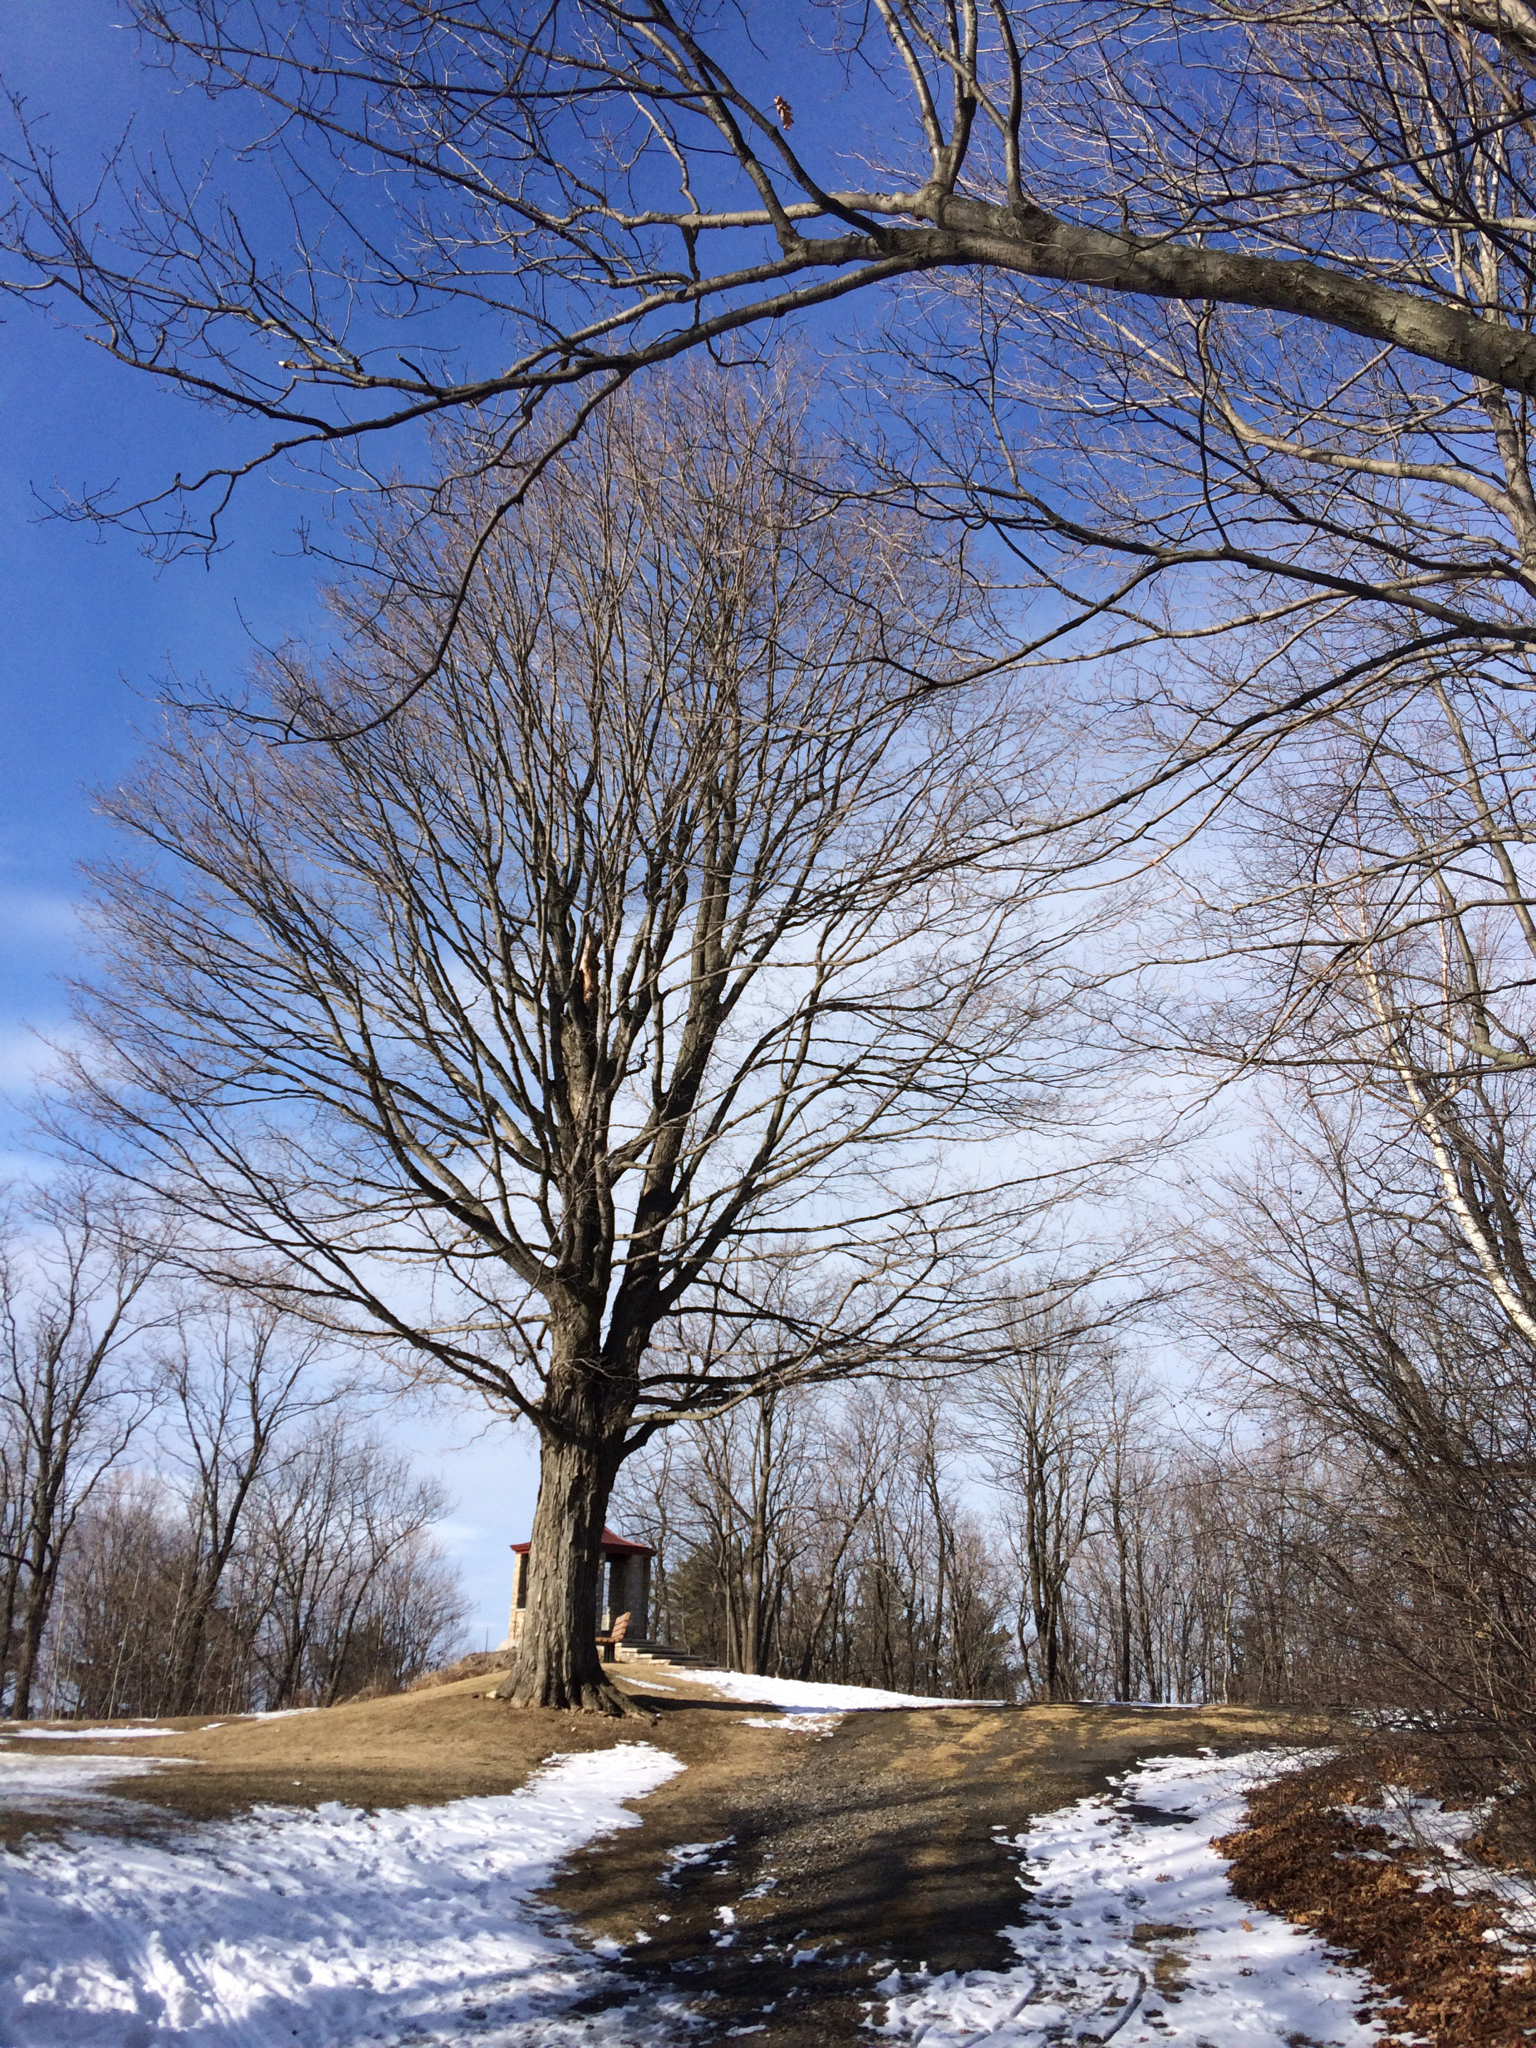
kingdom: Plantae
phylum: Tracheophyta
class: Magnoliopsida
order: Sapindales
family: Sapindaceae
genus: Acer
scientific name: Acer saccharum
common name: Sugar maple
